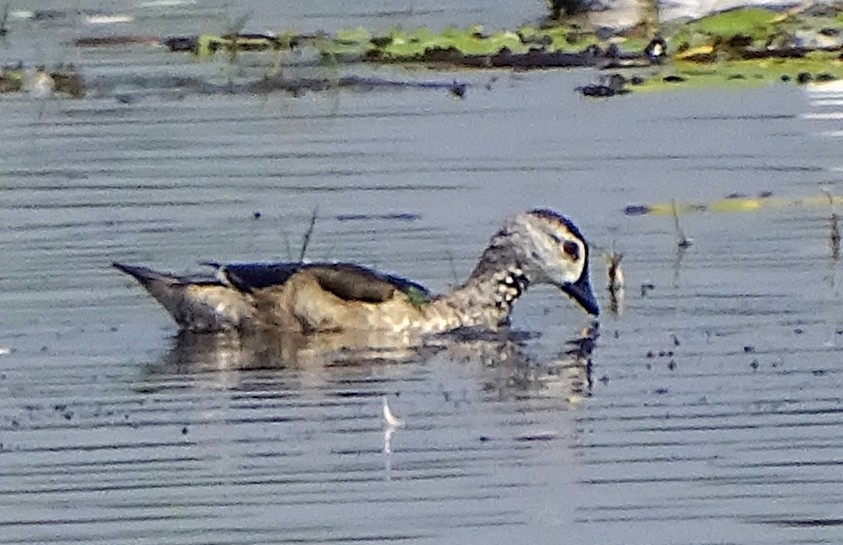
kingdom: Animalia
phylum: Chordata
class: Aves
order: Anseriformes
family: Anatidae
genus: Nettapus
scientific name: Nettapus coromandelianus
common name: Cotton pygmy-goose
